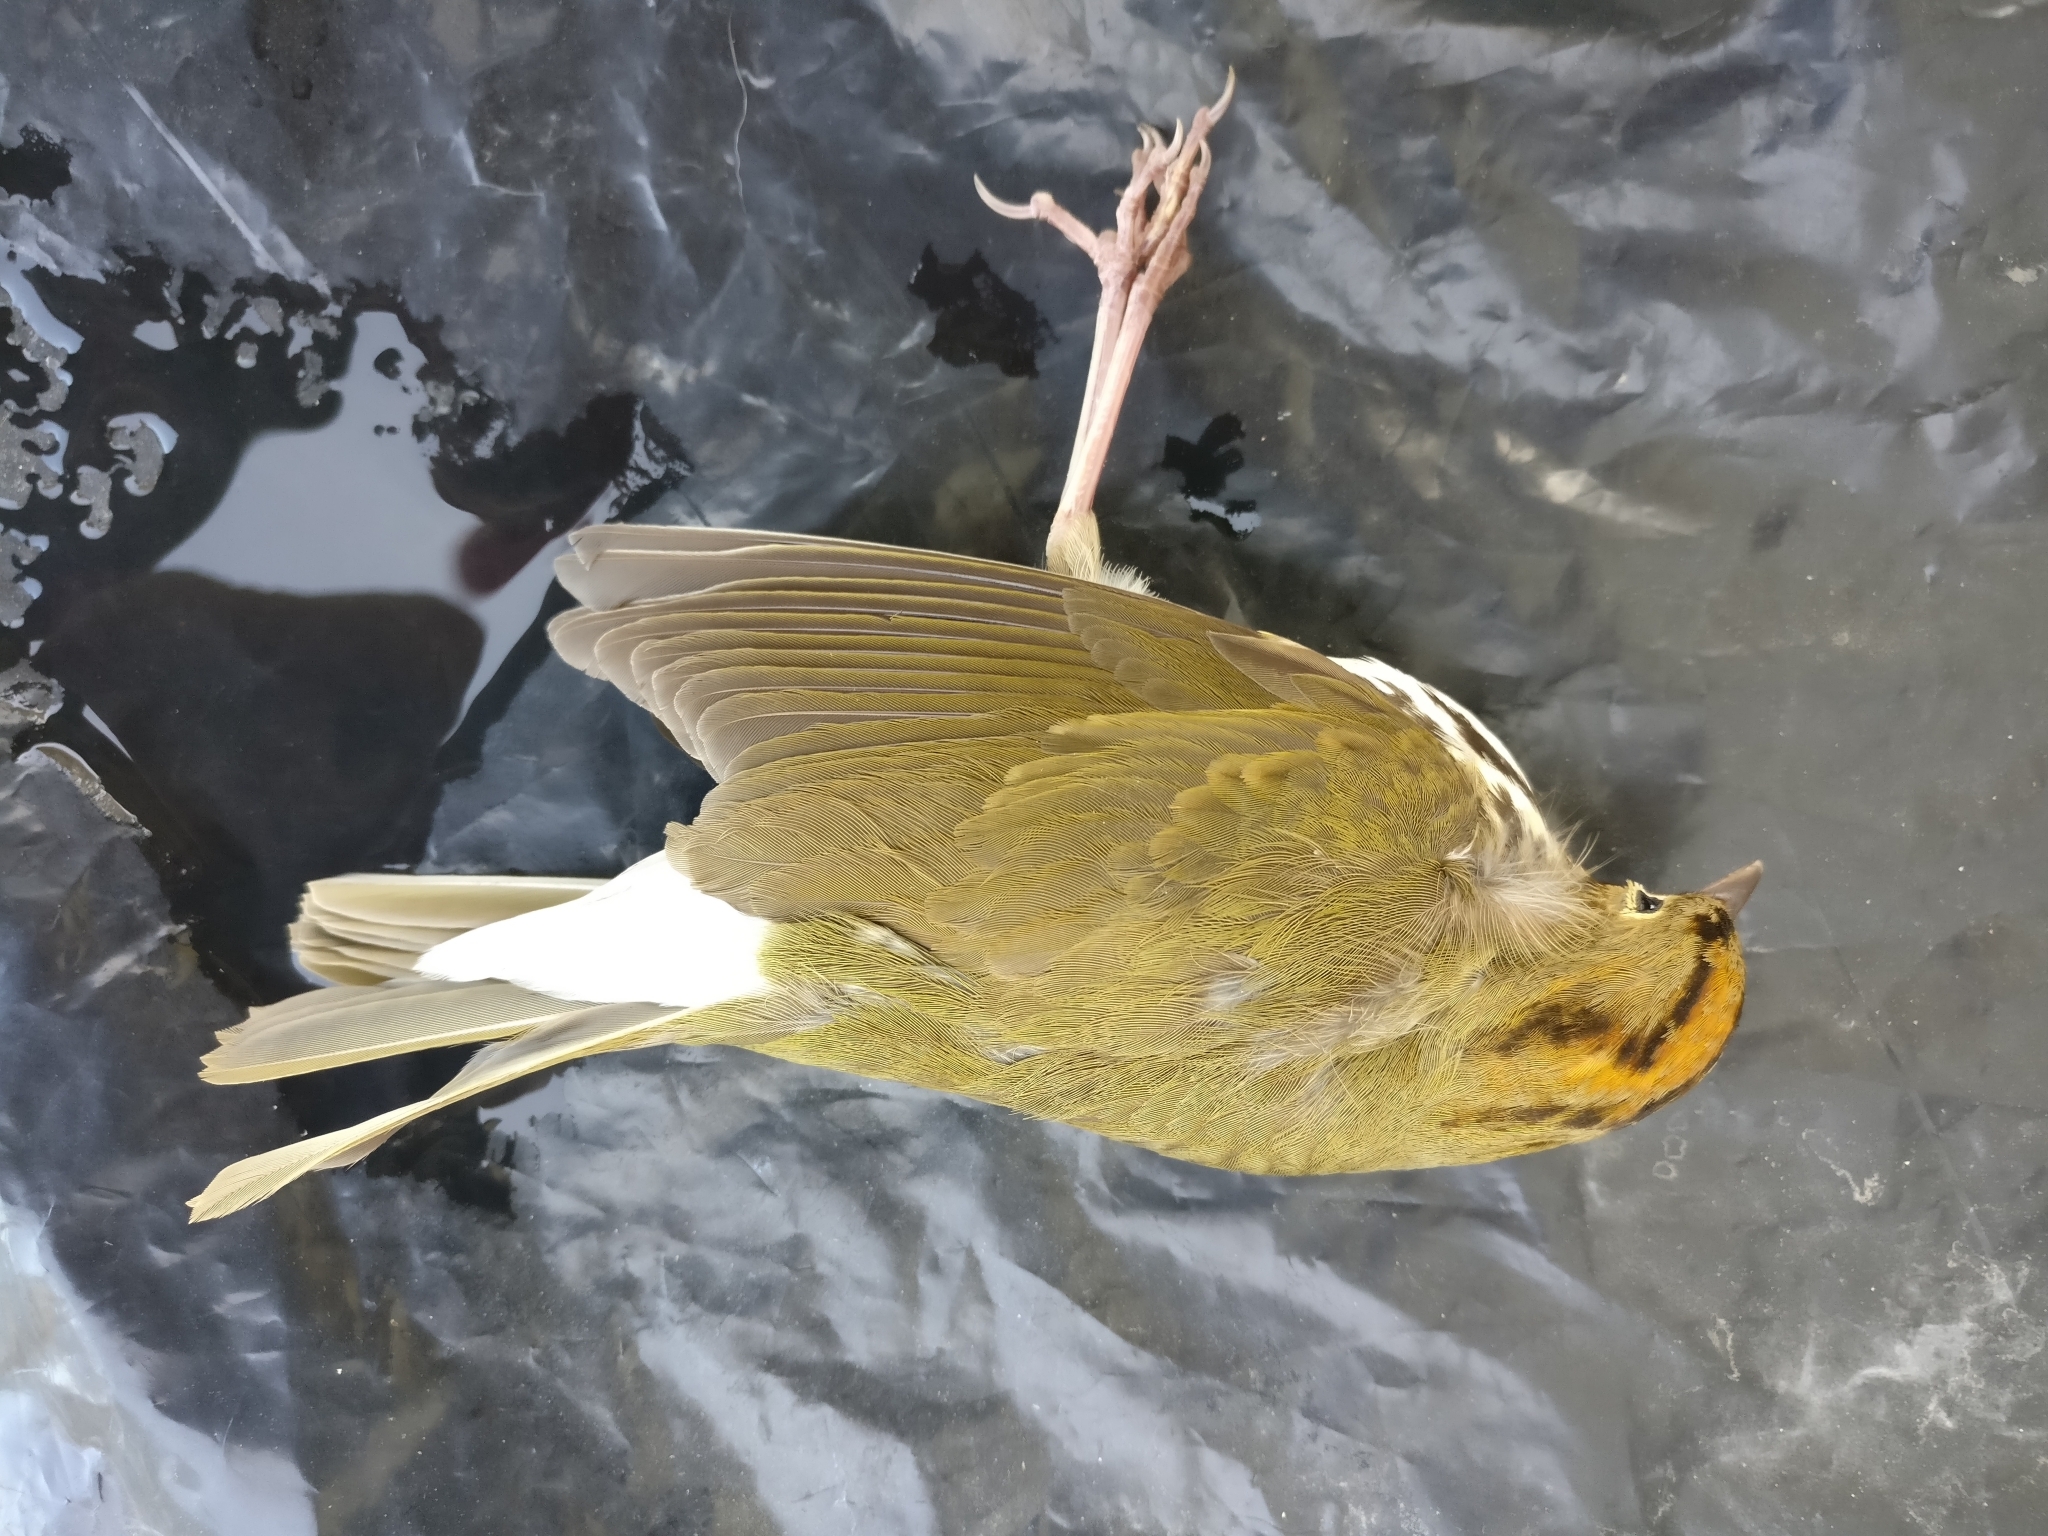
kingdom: Animalia
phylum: Chordata
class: Aves
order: Passeriformes
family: Parulidae
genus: Seiurus
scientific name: Seiurus aurocapilla
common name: Ovenbird
